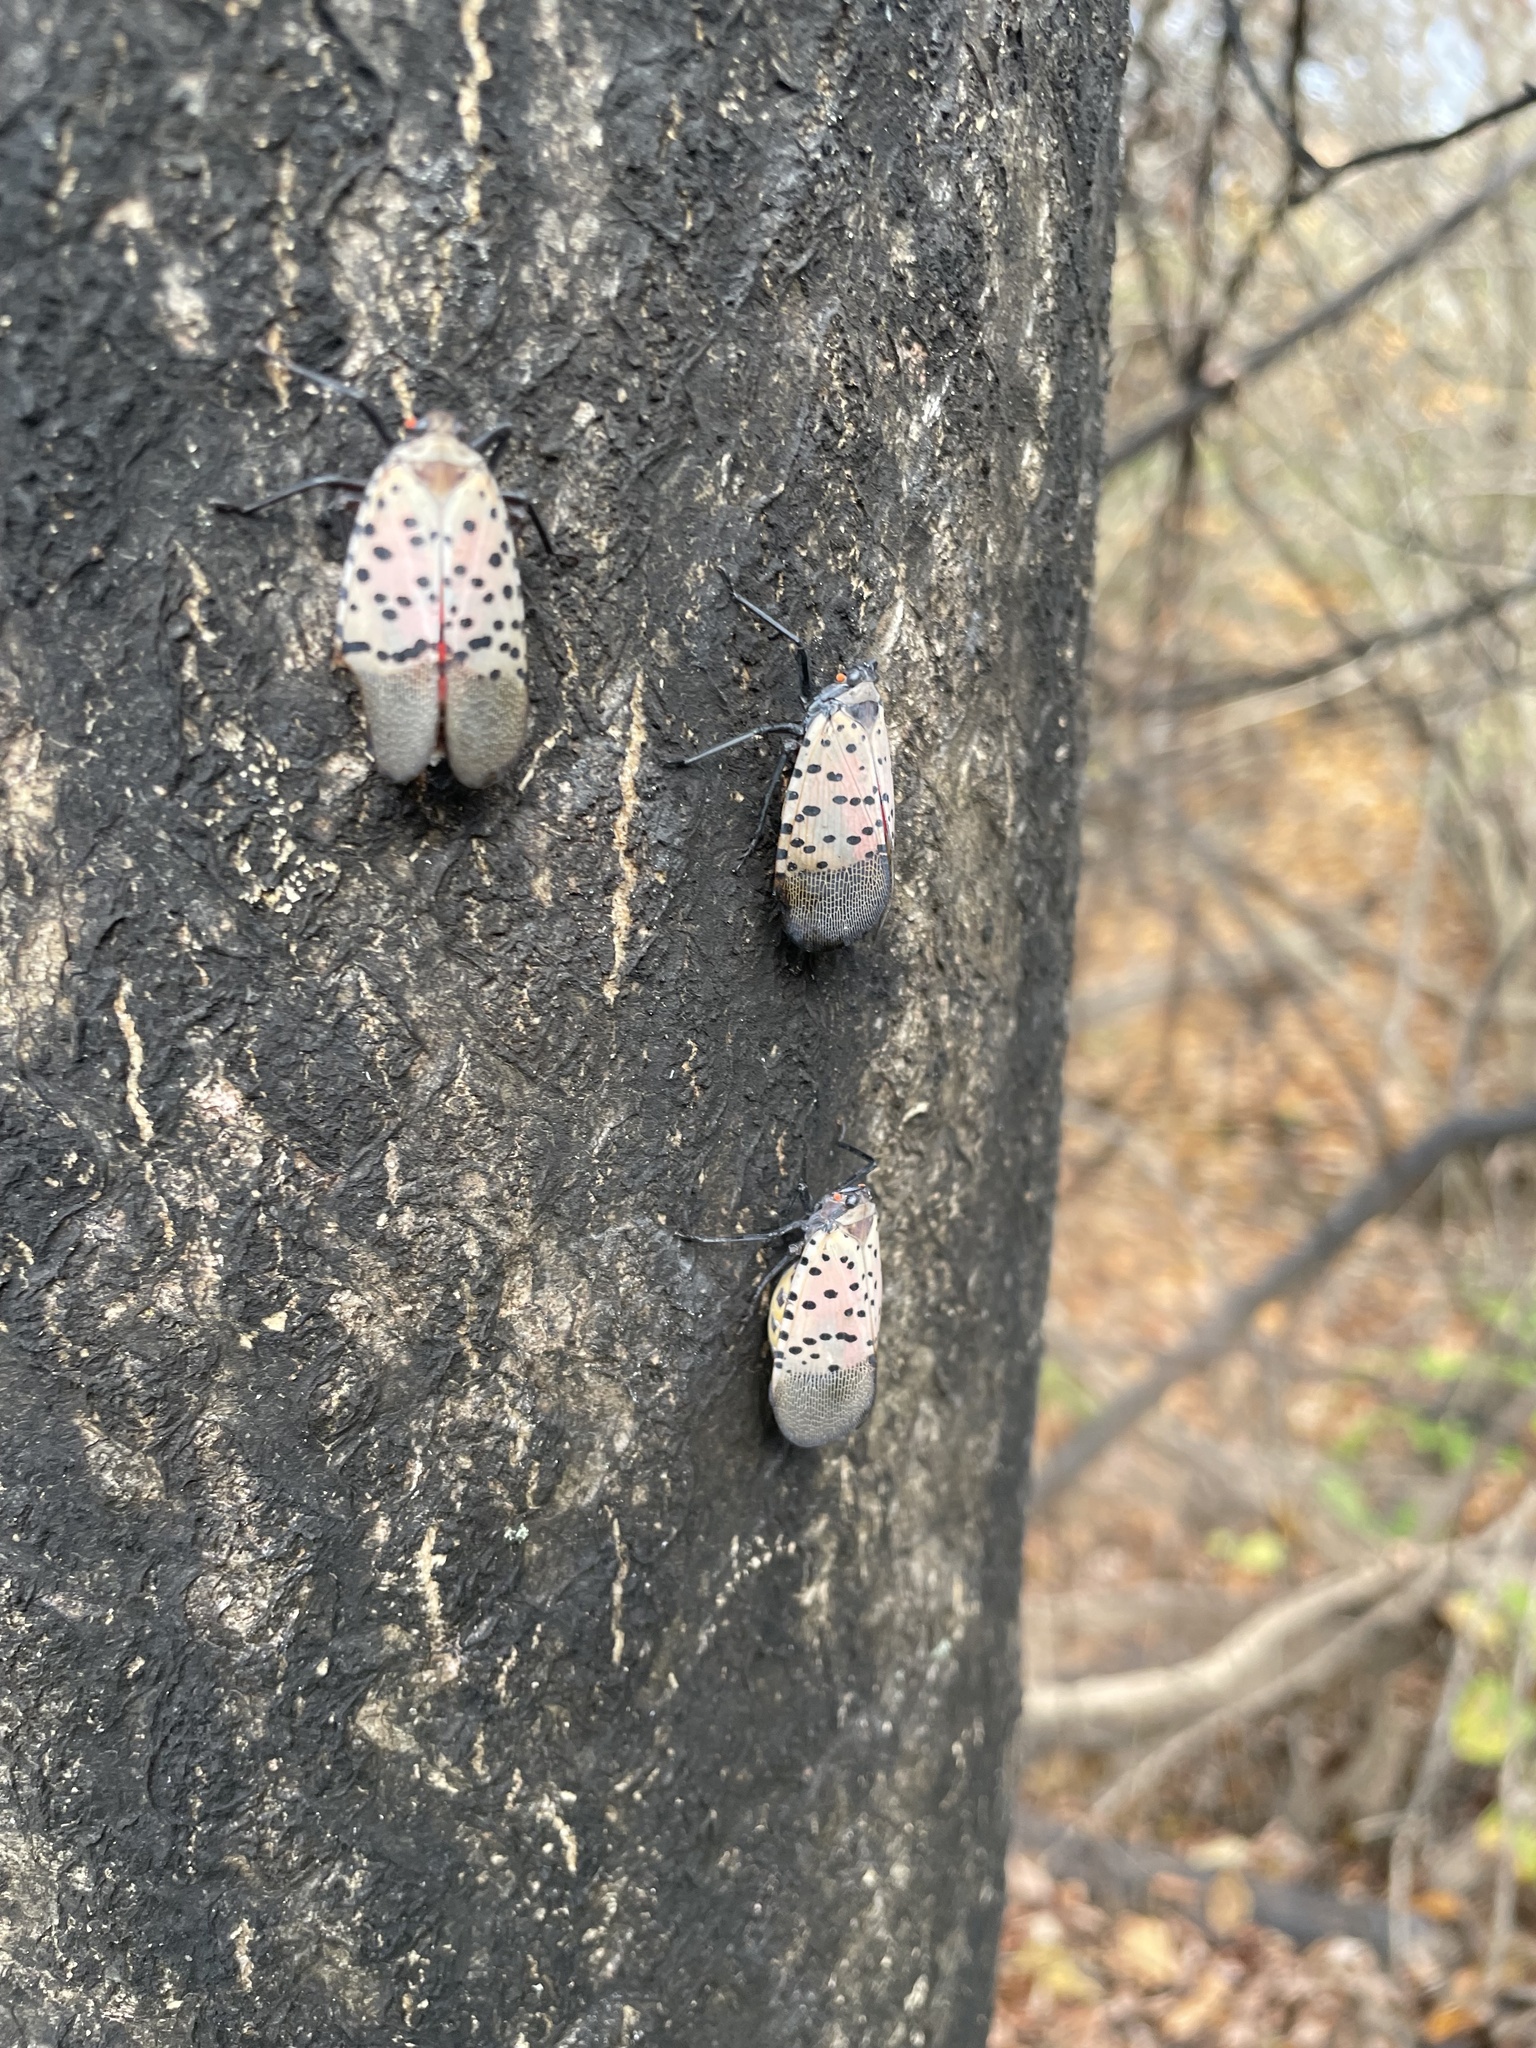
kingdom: Animalia
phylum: Arthropoda
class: Insecta
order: Hemiptera
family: Fulgoridae
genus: Lycorma
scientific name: Lycorma delicatula
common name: Spotted lanternfly
